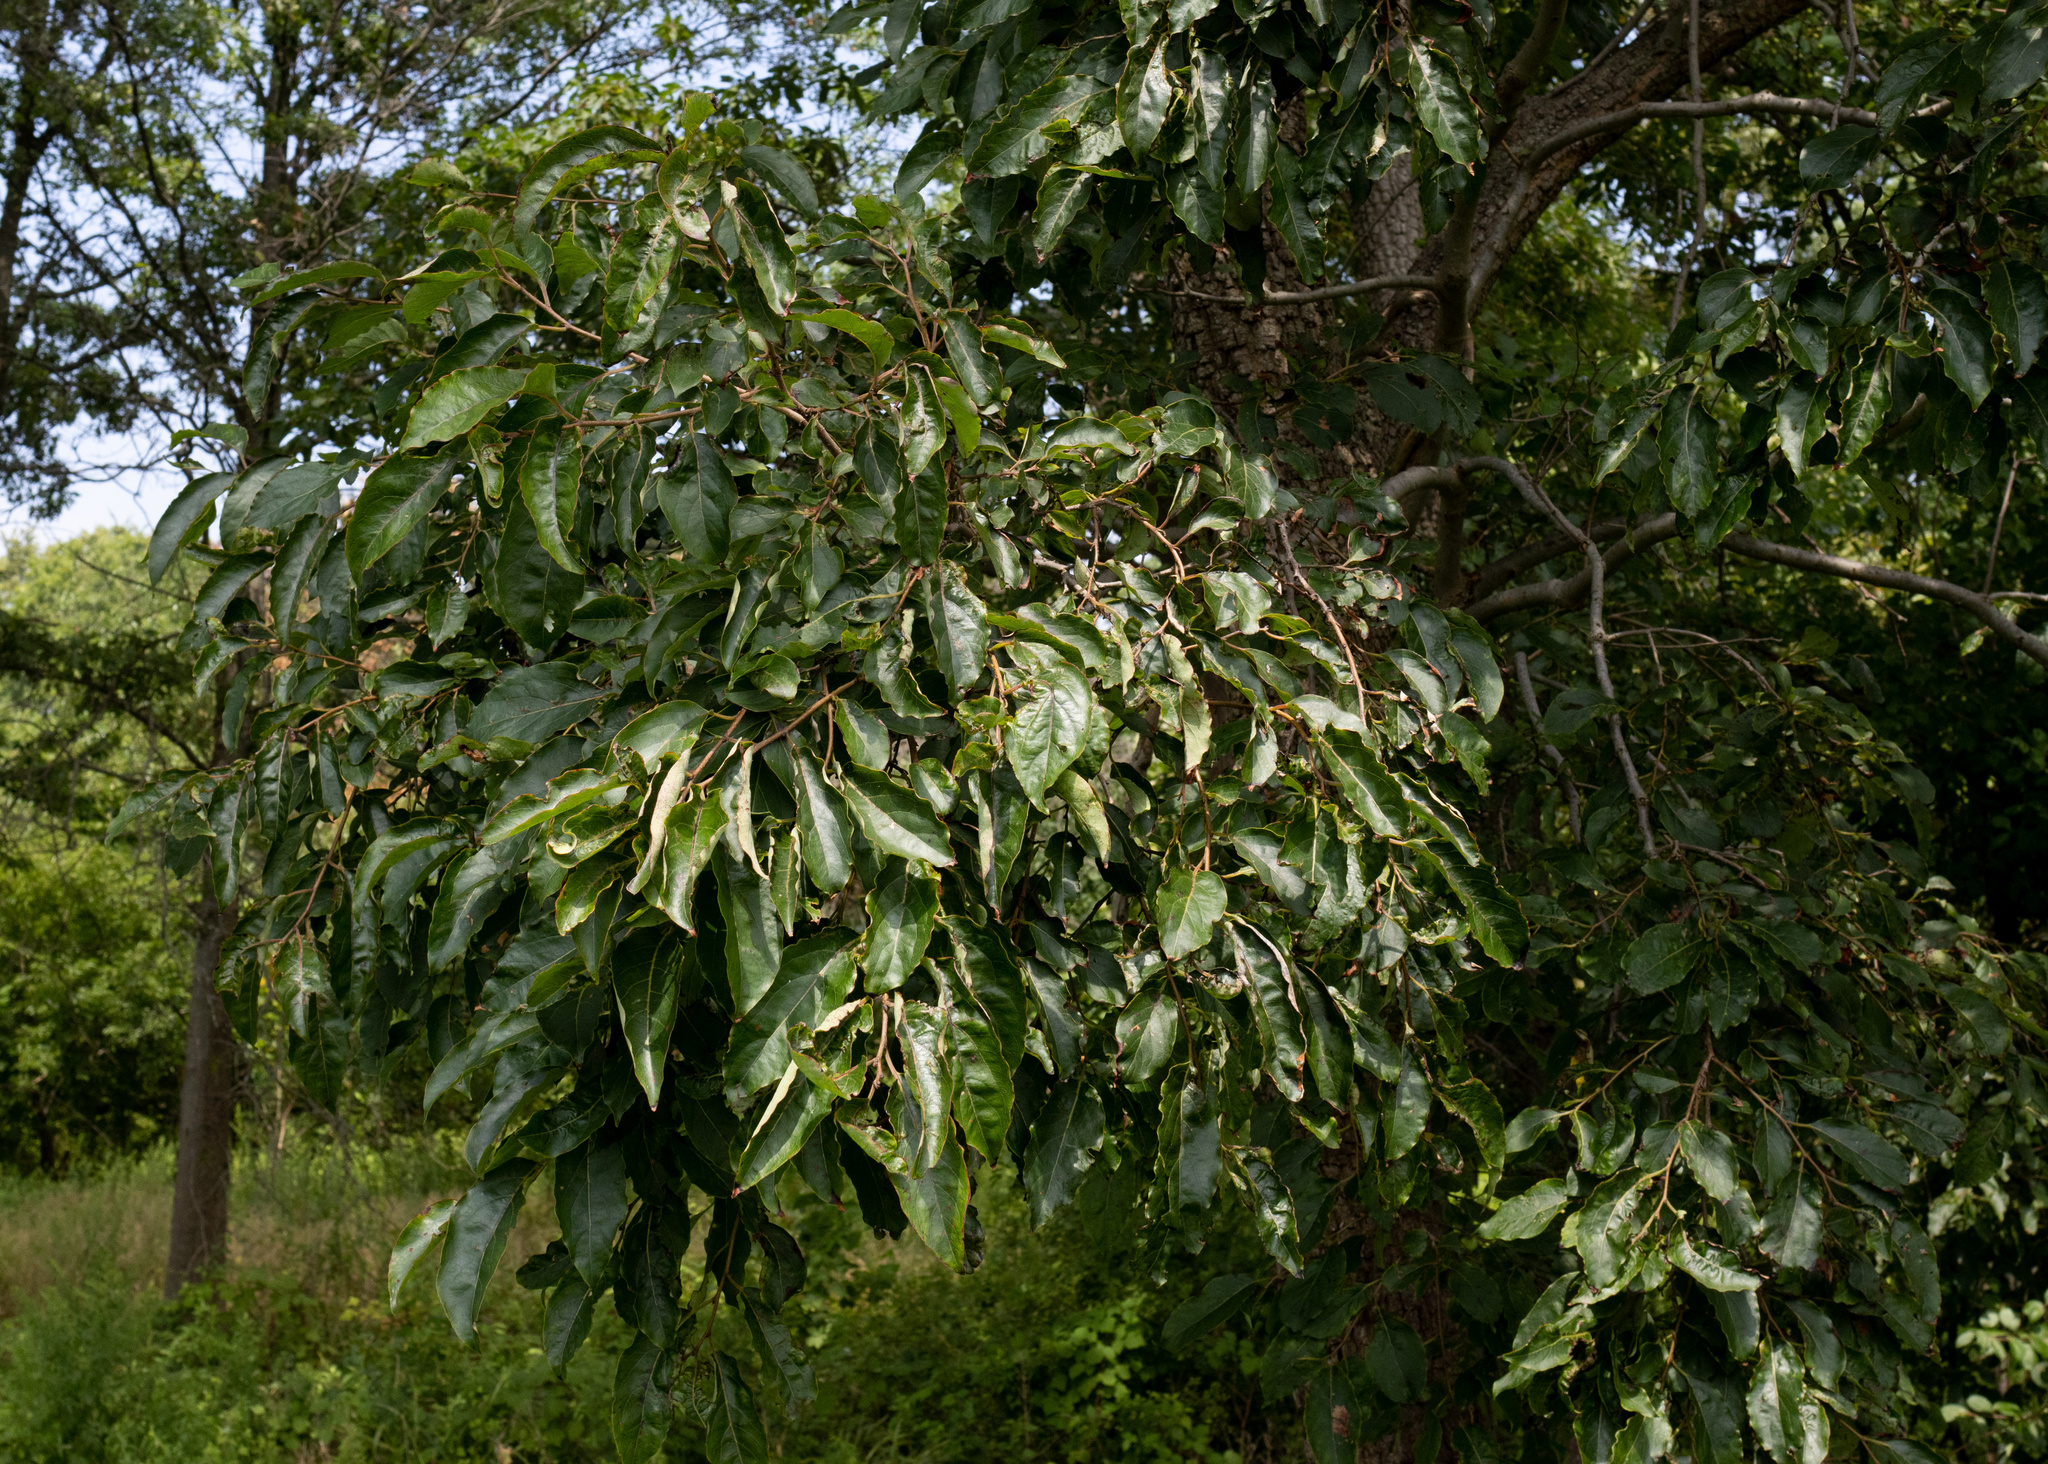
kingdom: Plantae
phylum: Tracheophyta
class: Magnoliopsida
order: Ericales
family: Ebenaceae
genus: Diospyros
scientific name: Diospyros virginiana
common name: Persimmon
